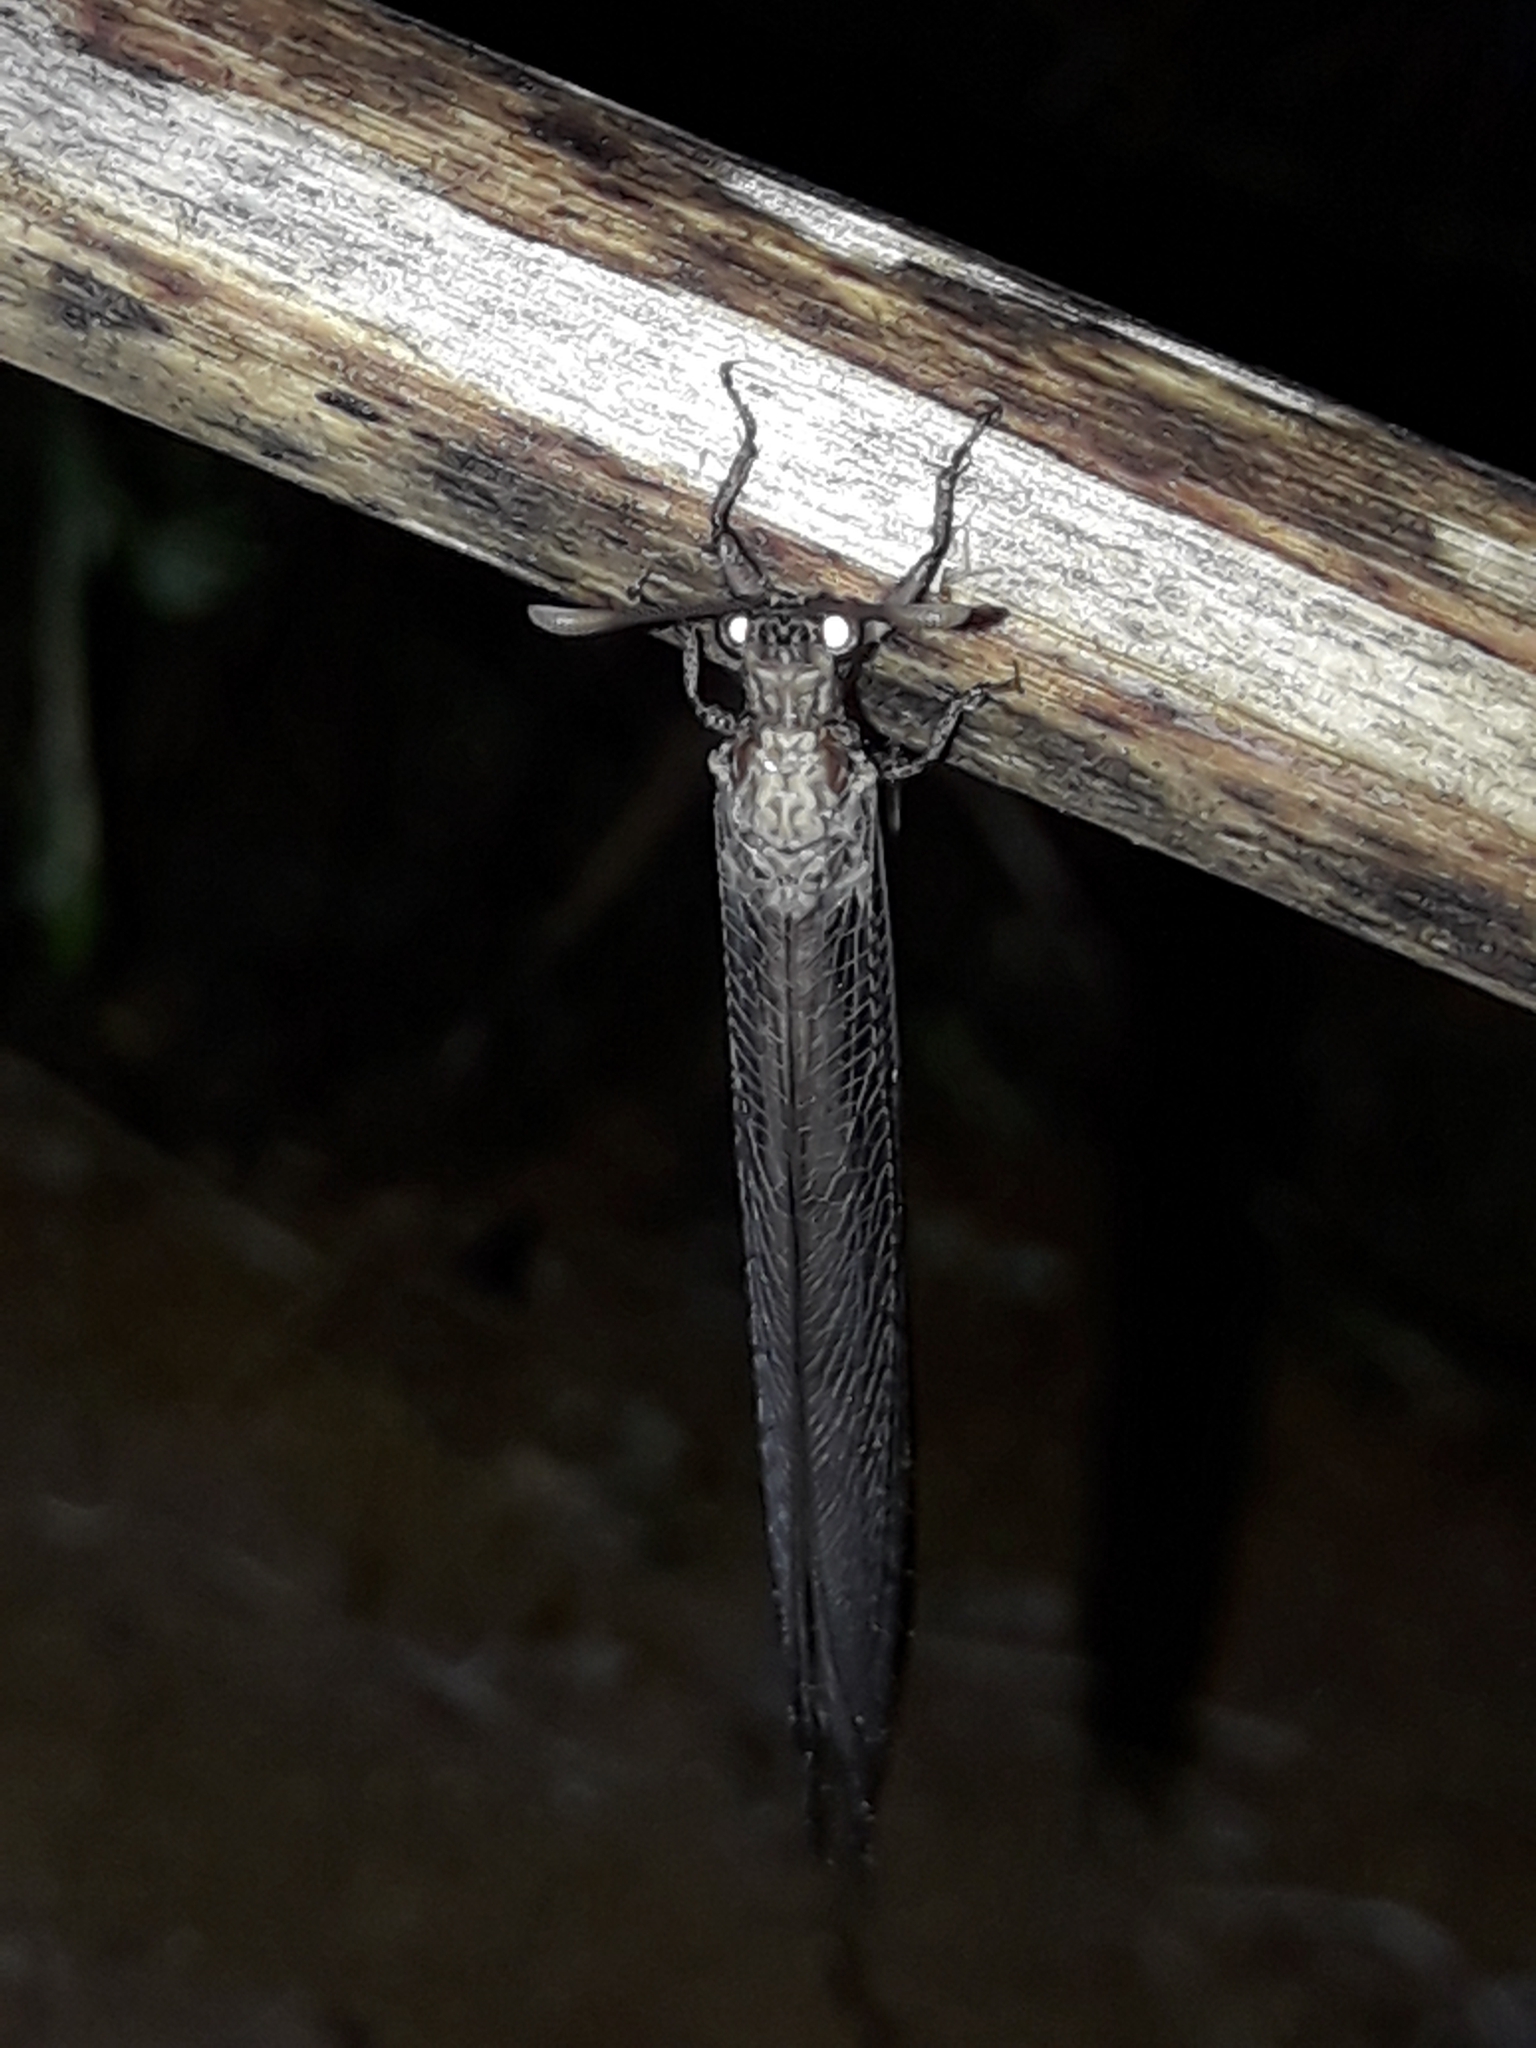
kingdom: Animalia
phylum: Arthropoda
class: Insecta
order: Neuroptera
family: Myrmeleontidae
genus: Distoleon
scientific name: Distoleon bistrigatus
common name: Lacewing
